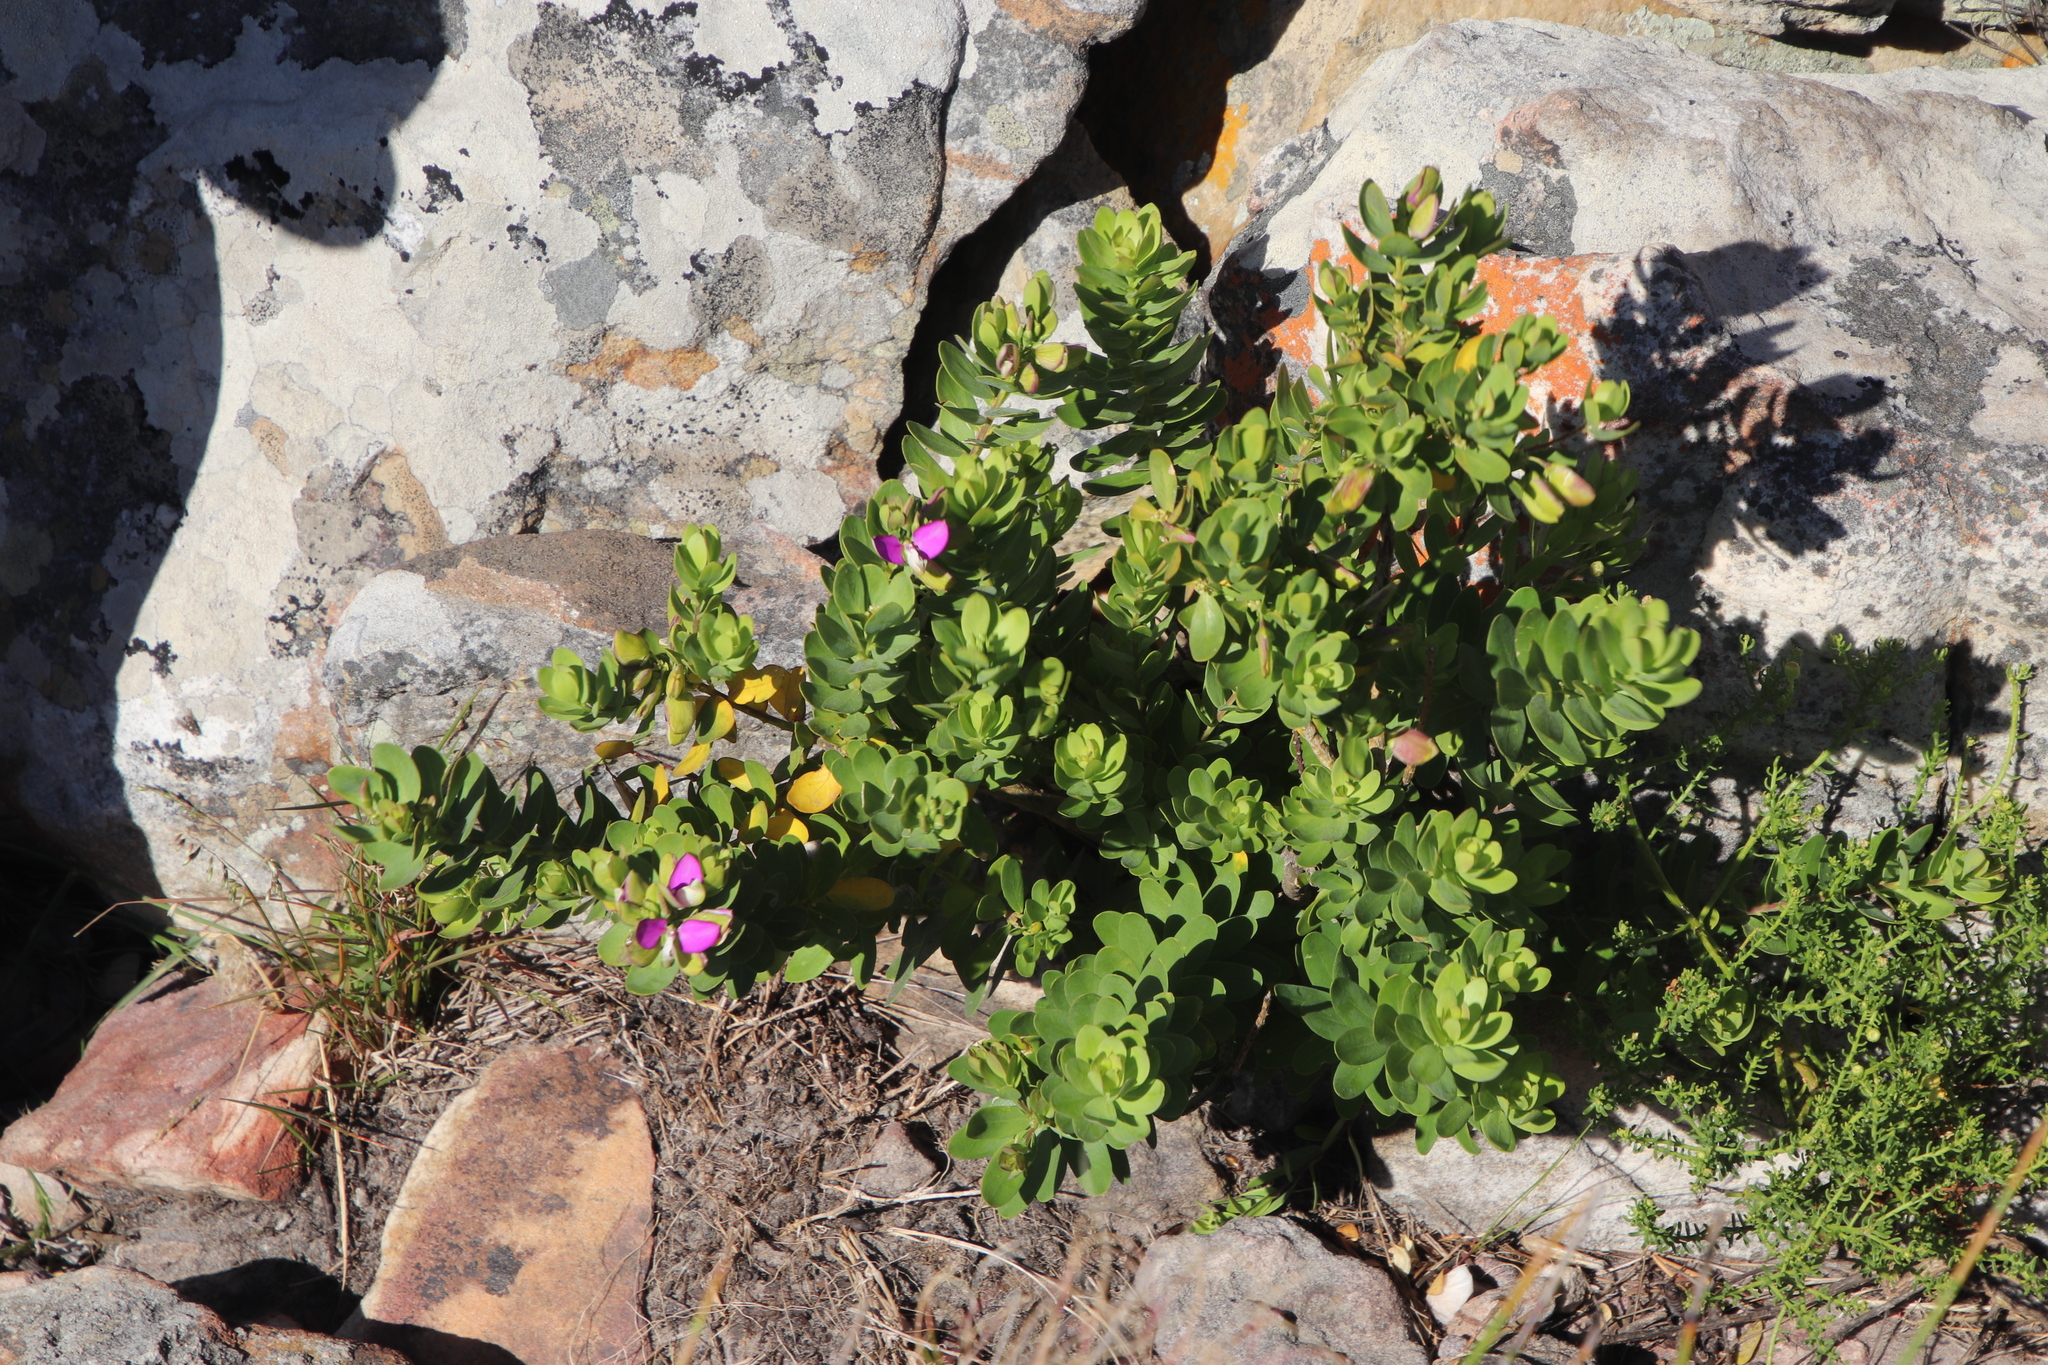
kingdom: Plantae
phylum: Tracheophyta
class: Magnoliopsida
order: Fabales
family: Polygalaceae
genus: Polygala
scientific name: Polygala myrtifolia
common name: Myrtle-leaf milkwort
